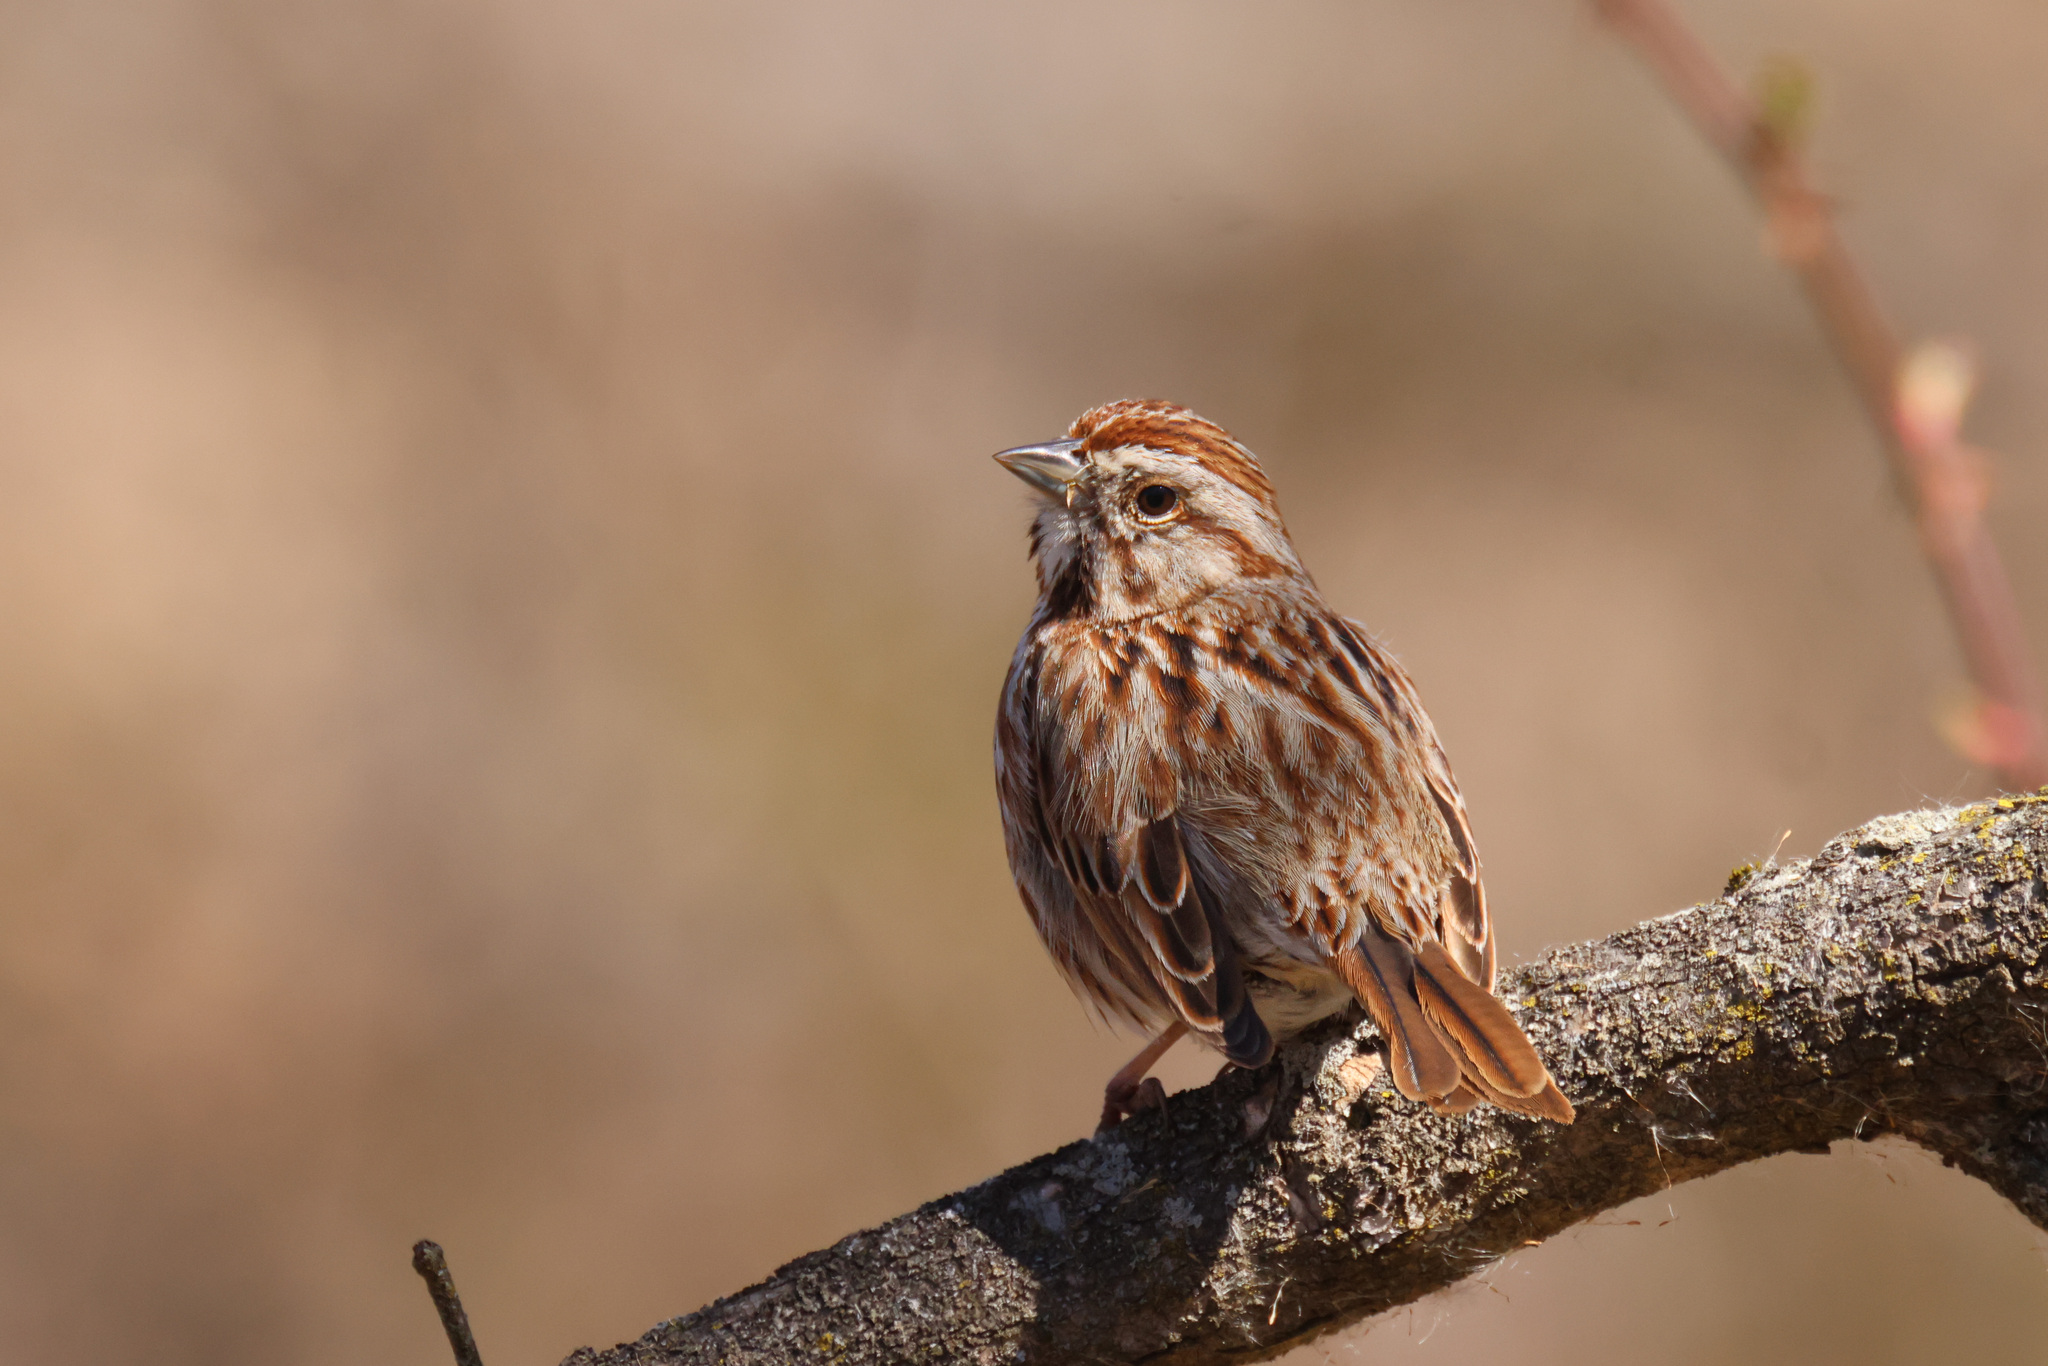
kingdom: Animalia
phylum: Chordata
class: Aves
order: Passeriformes
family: Passerellidae
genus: Melospiza
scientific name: Melospiza melodia
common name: Song sparrow
